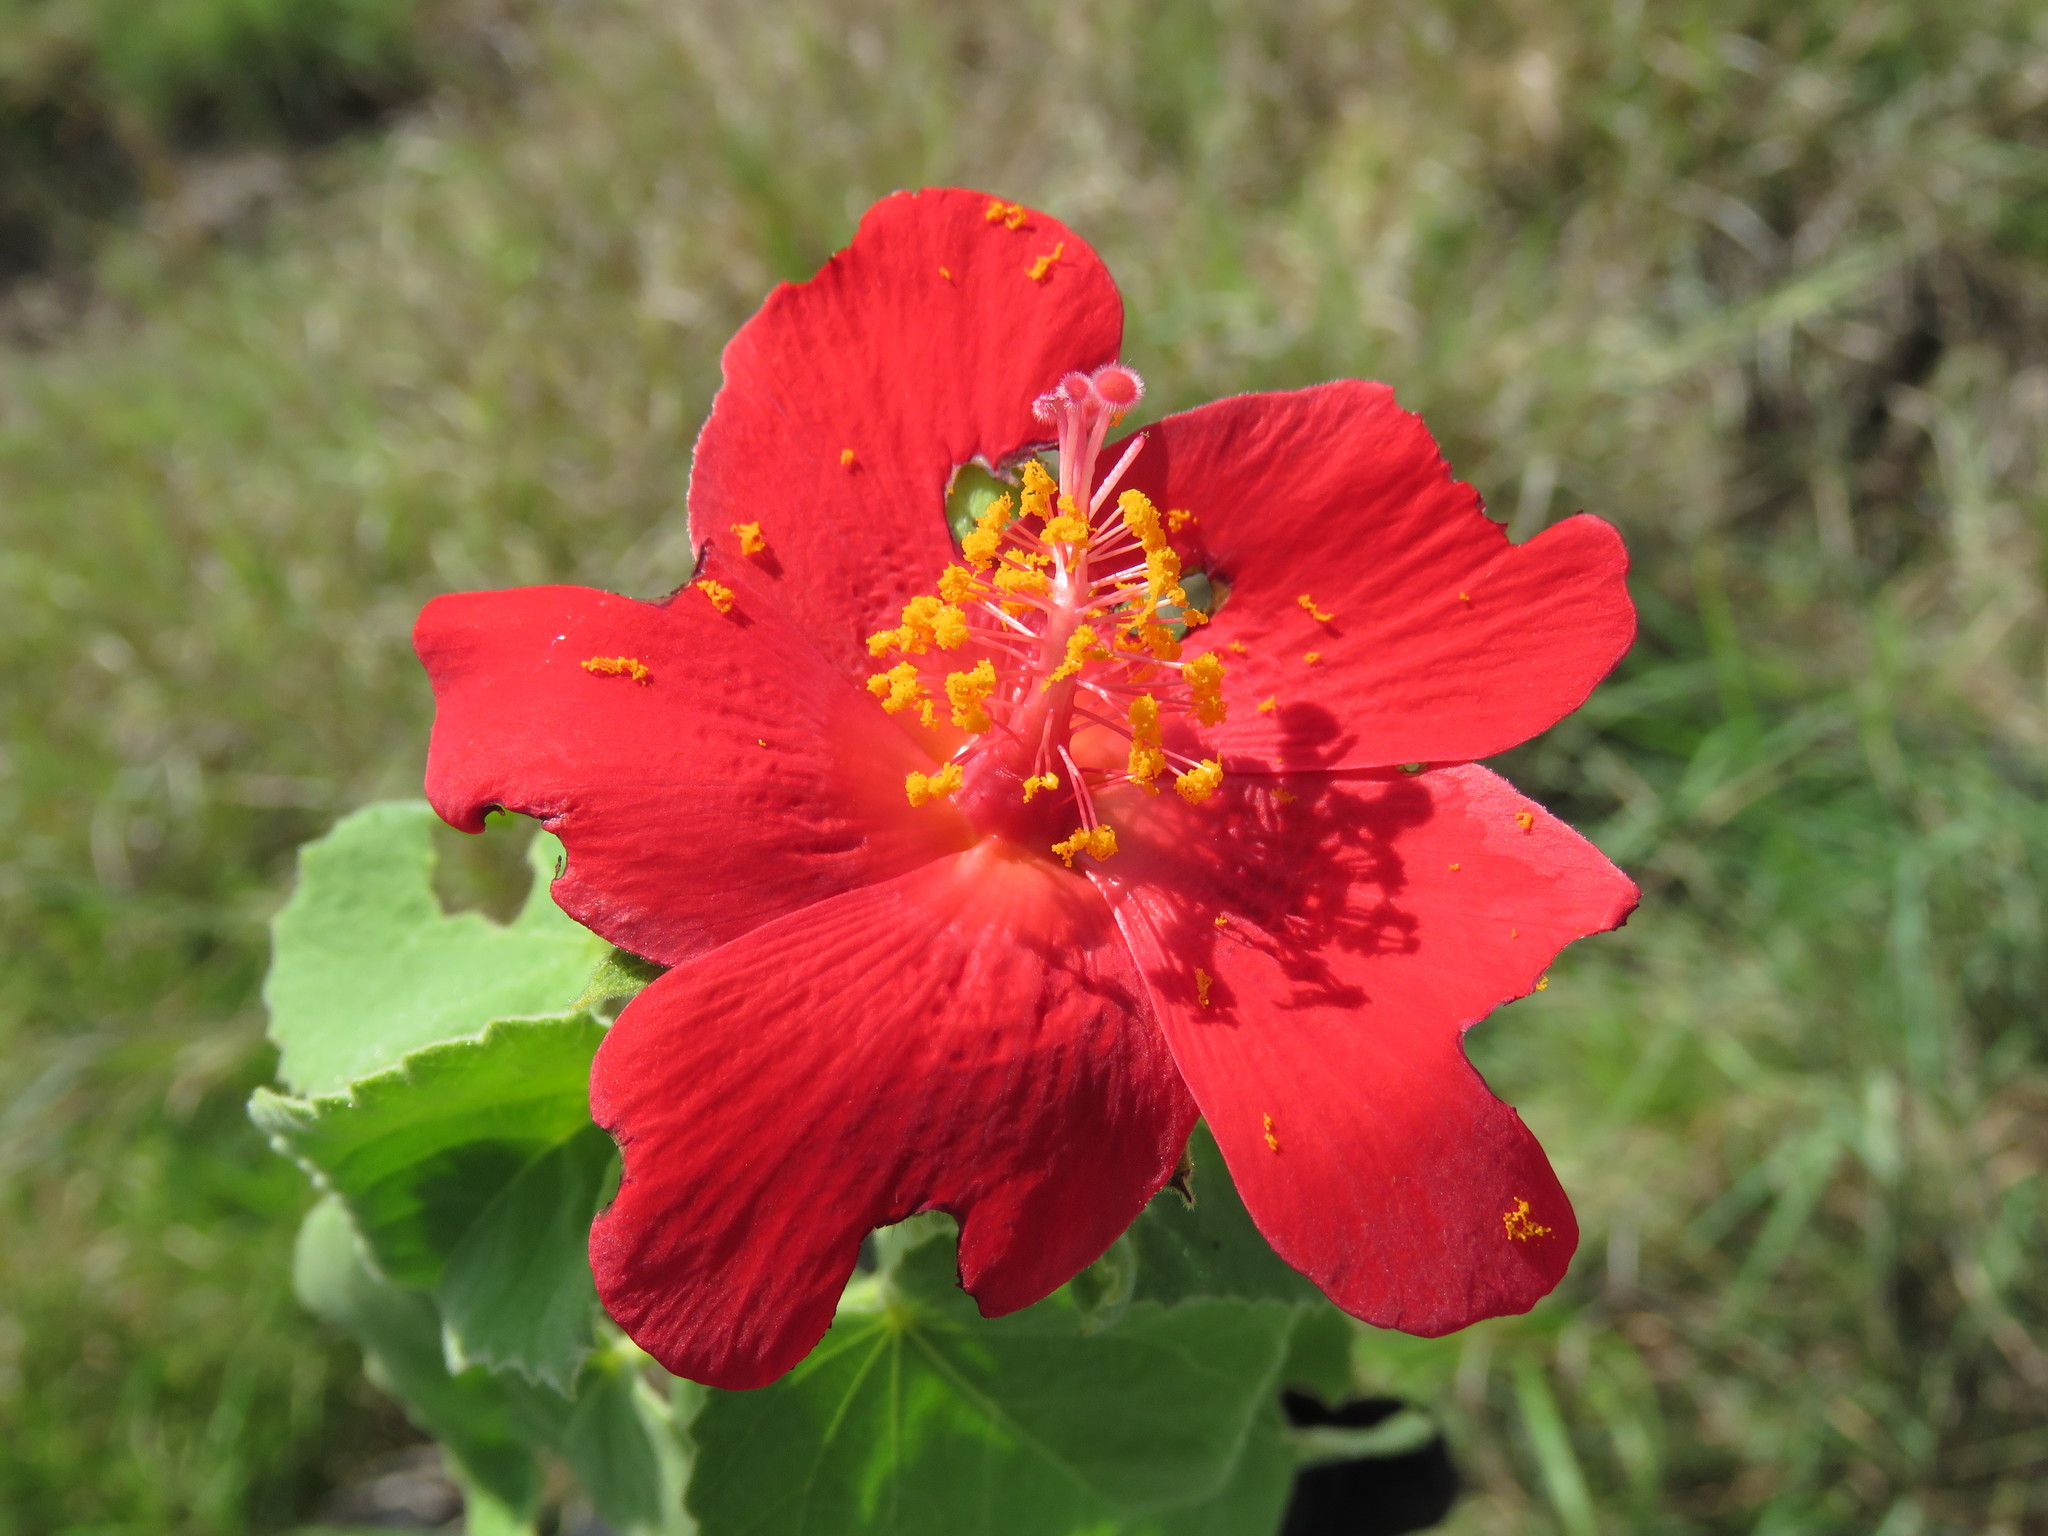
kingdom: Plantae
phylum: Tracheophyta
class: Magnoliopsida
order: Malvales
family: Malvaceae
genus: Hibiscus
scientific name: Hibiscus martianus
